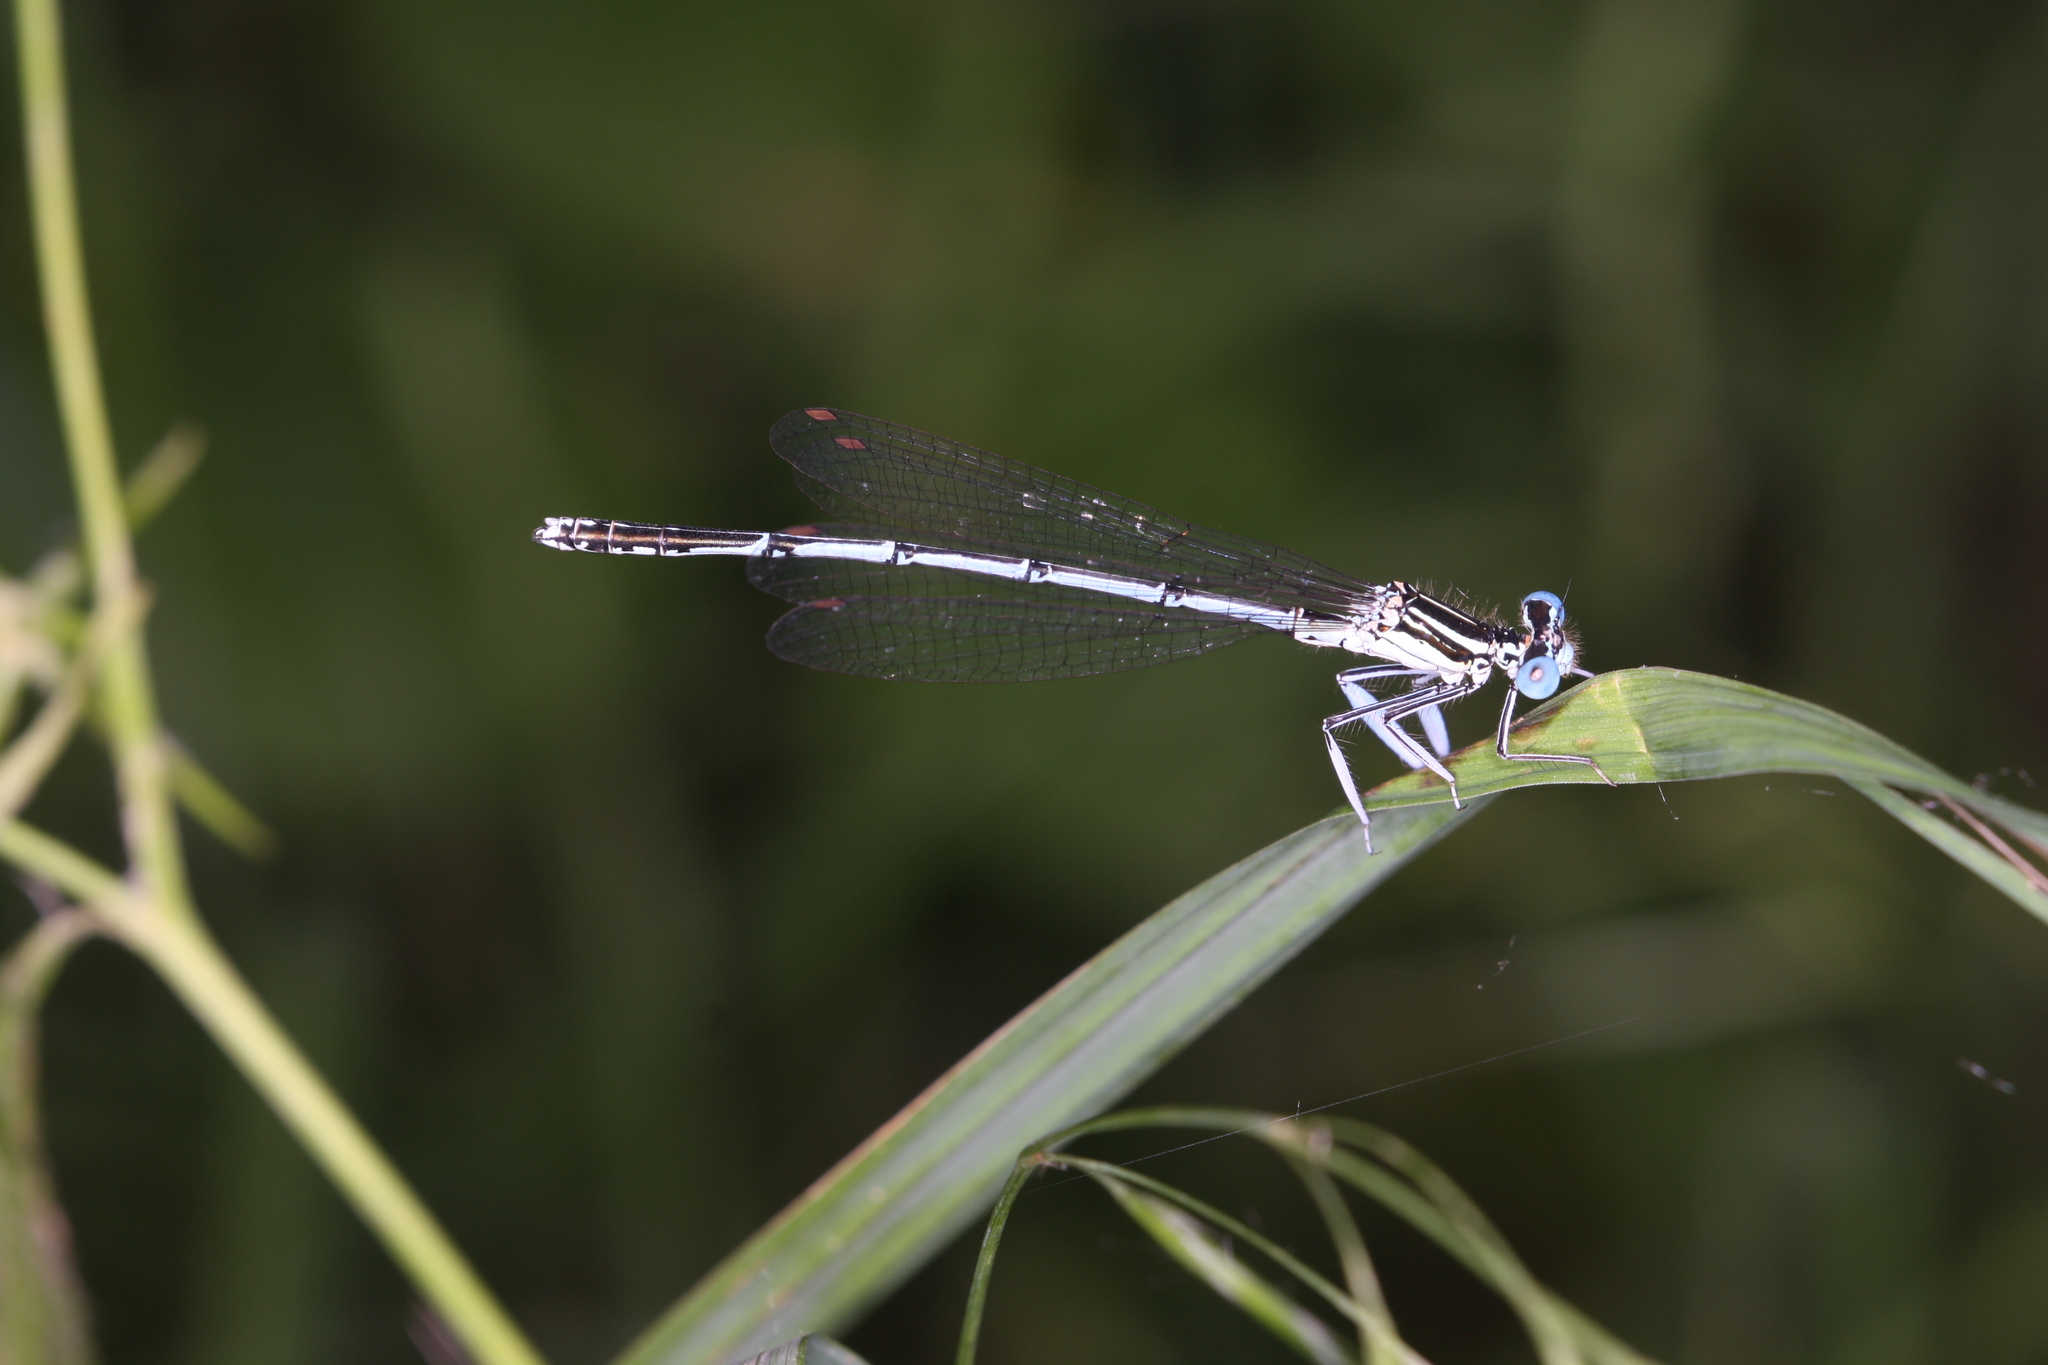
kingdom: Animalia
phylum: Arthropoda
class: Insecta
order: Odonata
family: Platycnemididae
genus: Platycnemis
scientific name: Platycnemis pennipes
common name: White-legged damselfly
